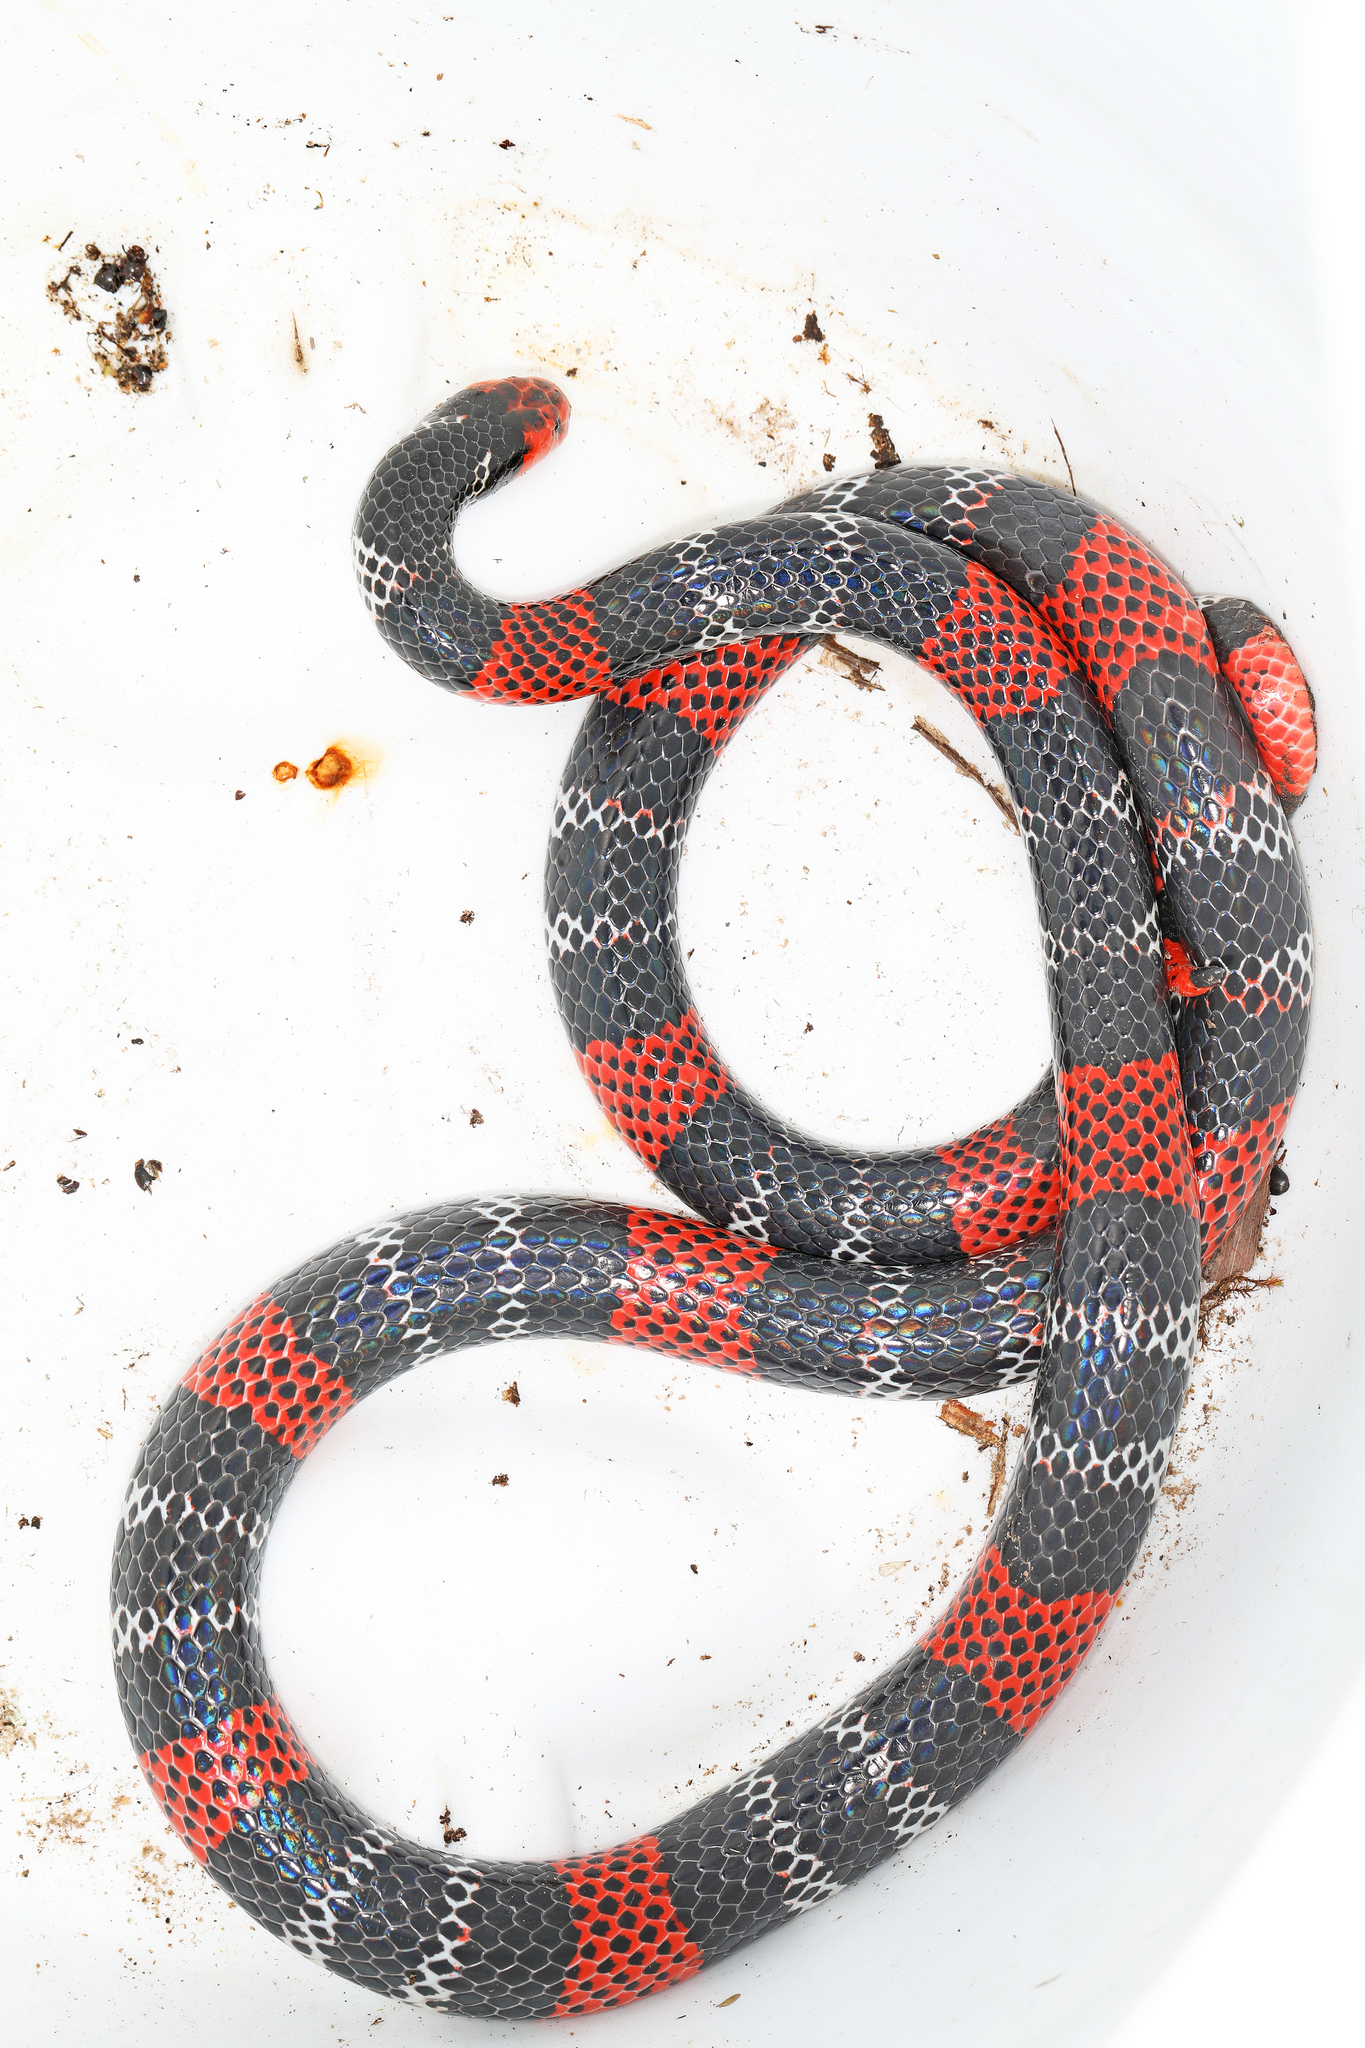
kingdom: Animalia
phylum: Chordata
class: Squamata
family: Elapidae
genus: Micrurus
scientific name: Micrurus ancoralis
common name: Regal coral snake
